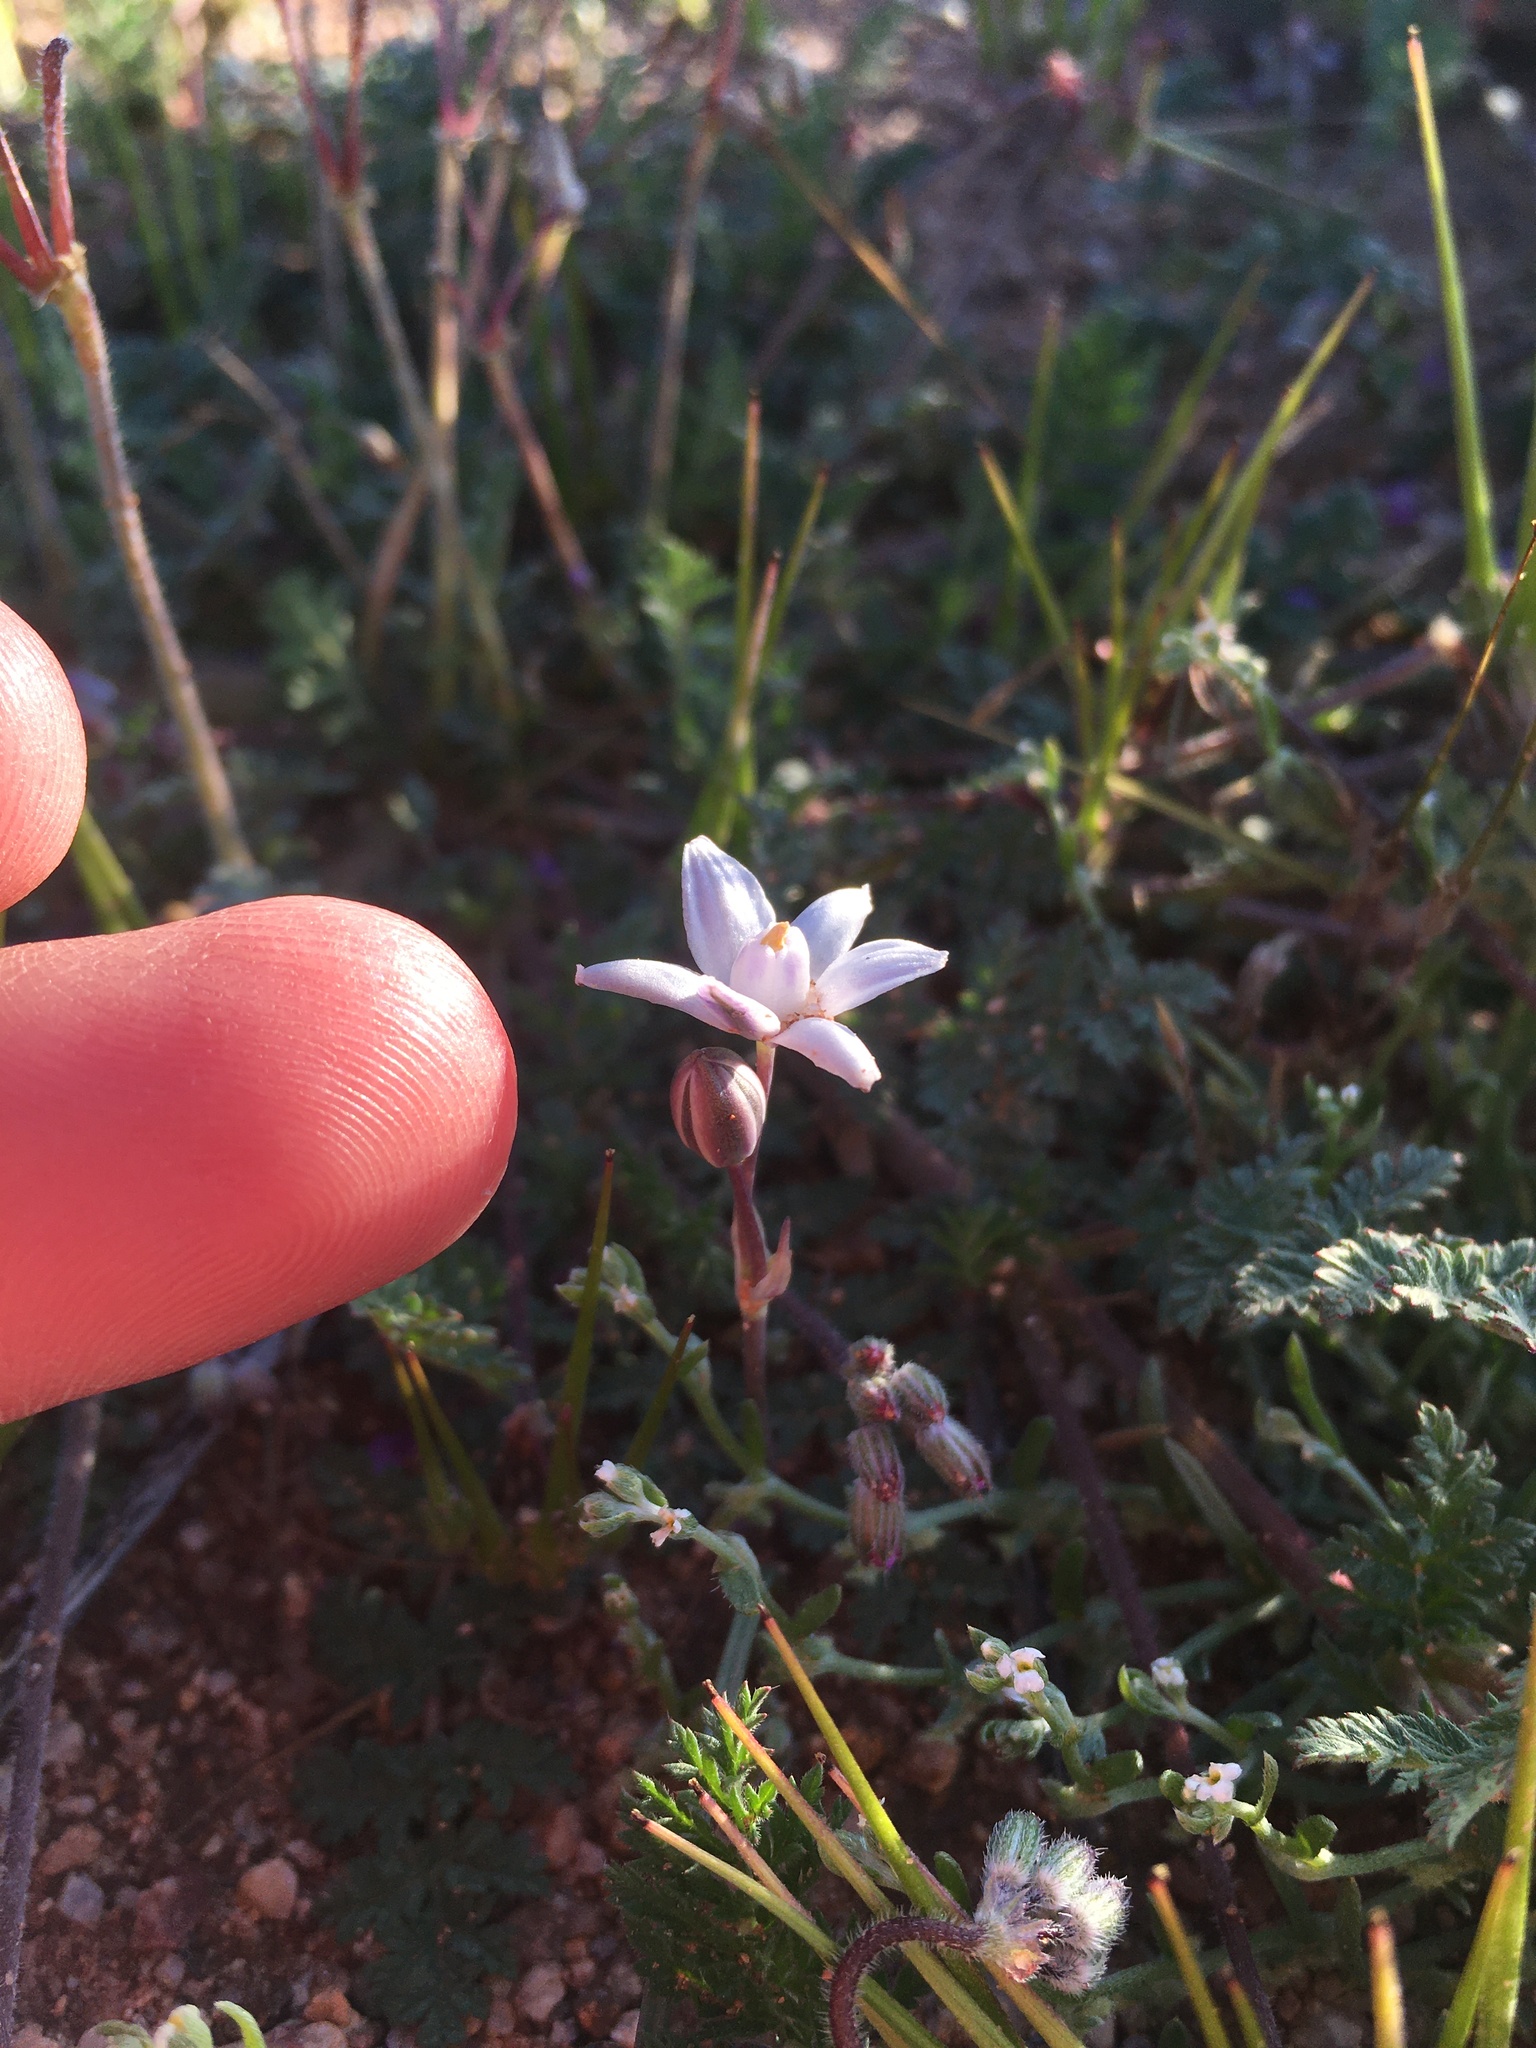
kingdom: Plantae
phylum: Tracheophyta
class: Liliopsida
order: Asparagales
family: Asparagaceae
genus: Muilla
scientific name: Muilla lordsburgana
